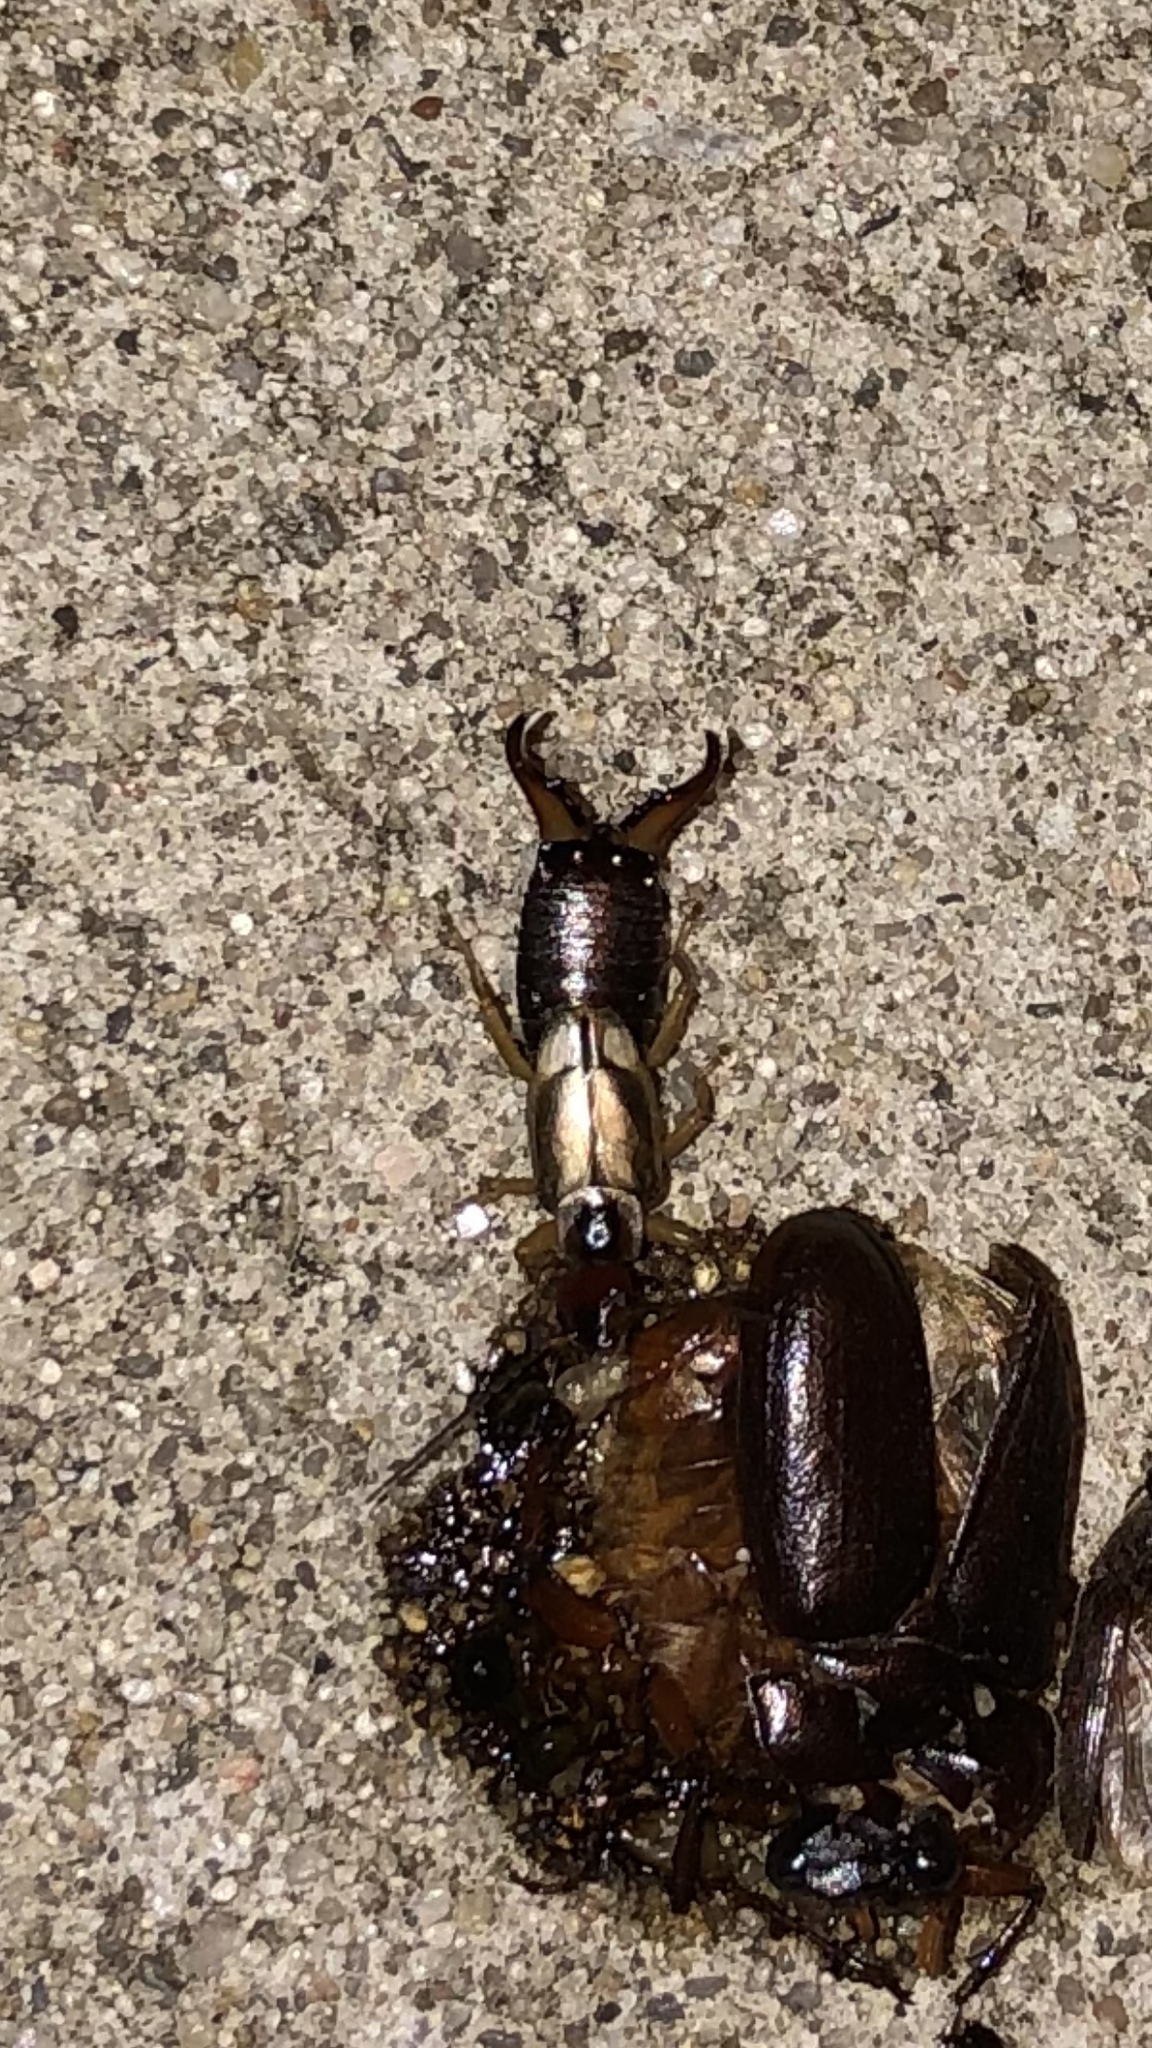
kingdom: Animalia
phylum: Arthropoda
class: Insecta
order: Dermaptera
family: Forficulidae
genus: Forficula
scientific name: Forficula
